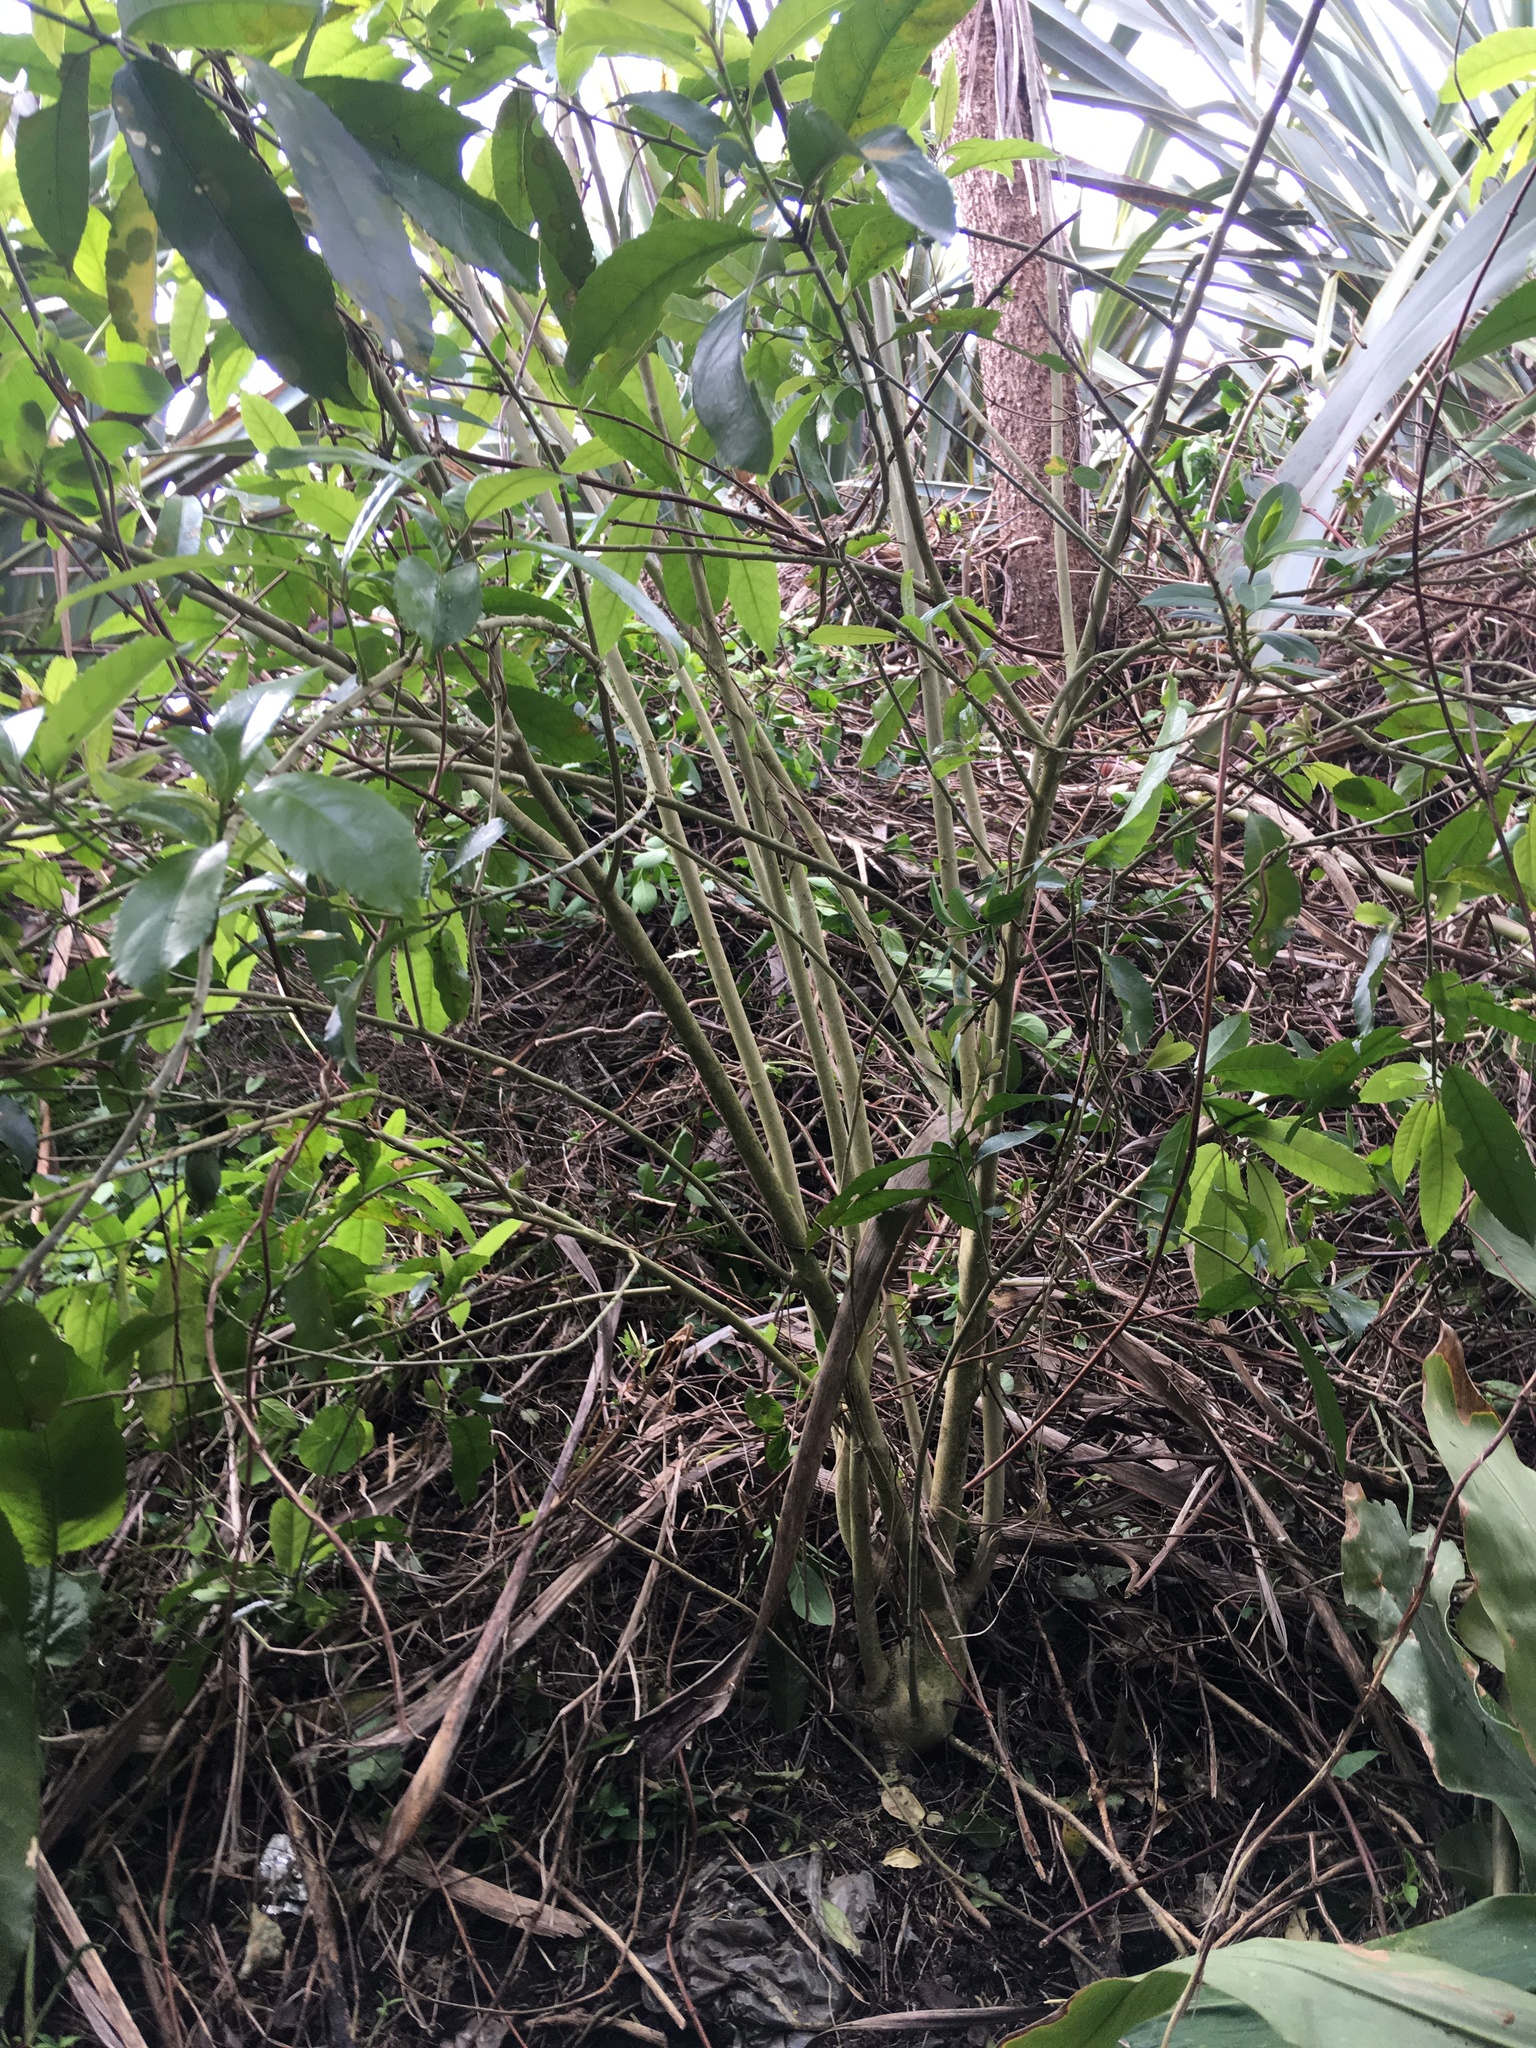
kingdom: Plantae
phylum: Tracheophyta
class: Magnoliopsida
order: Malpighiales
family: Violaceae
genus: Melicytus
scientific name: Melicytus ramiflorus
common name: Mahoe
